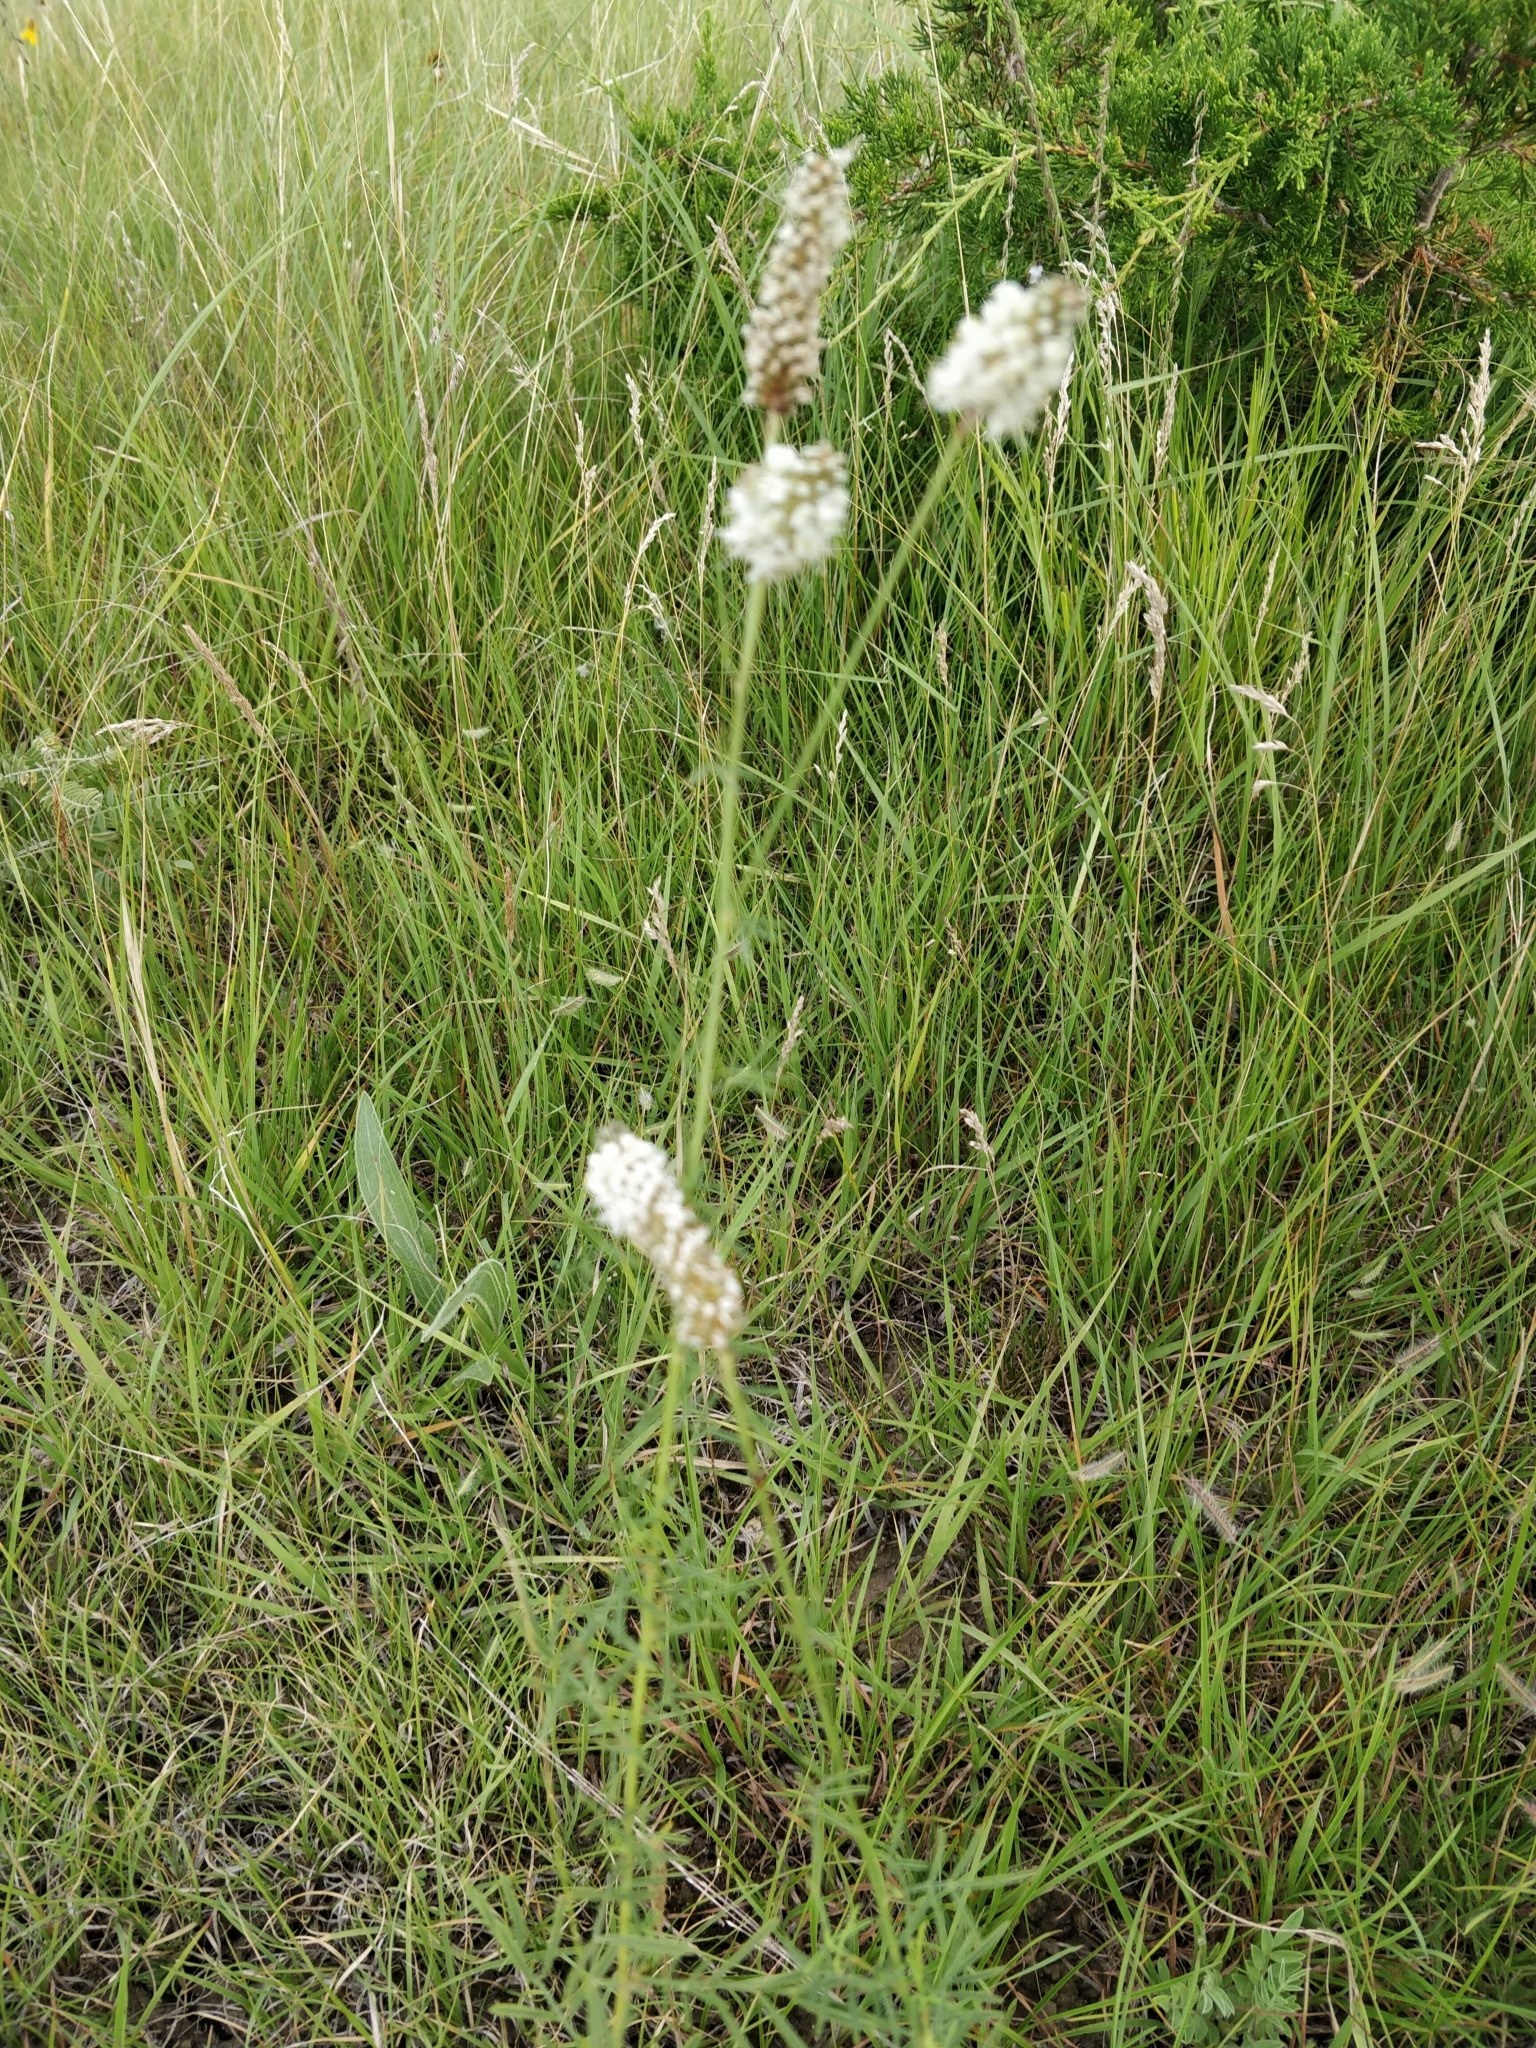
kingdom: Plantae
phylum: Tracheophyta
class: Magnoliopsida
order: Fabales
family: Fabaceae
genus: Dalea
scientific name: Dalea candida
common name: White prairie-clover
